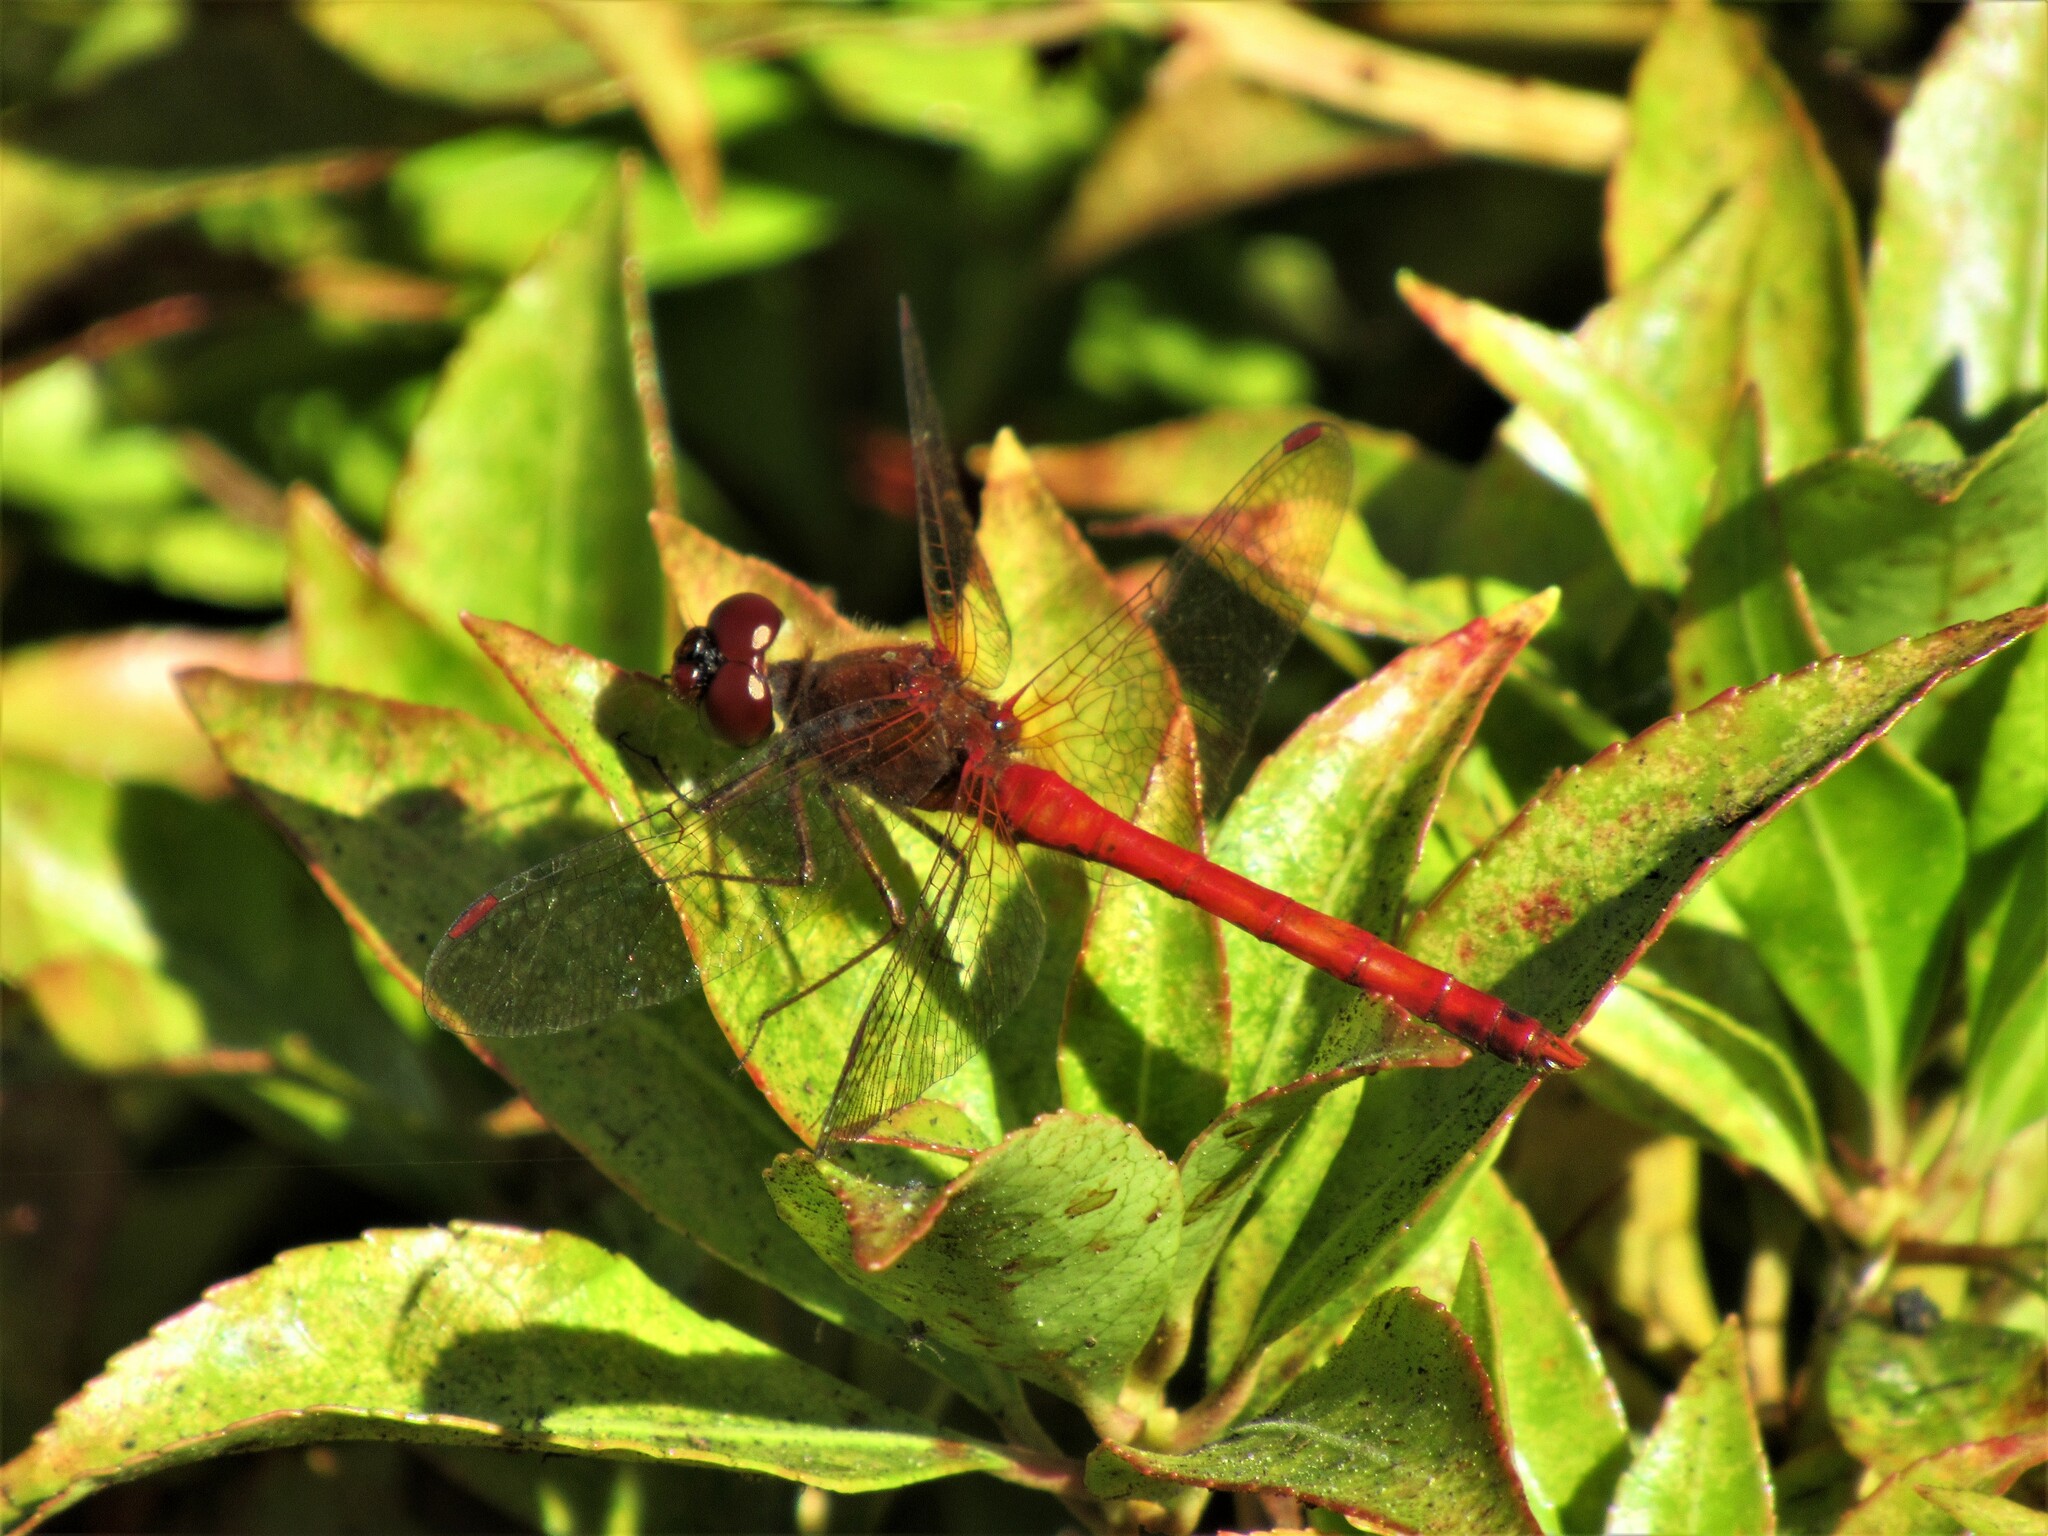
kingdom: Animalia
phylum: Arthropoda
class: Insecta
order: Odonata
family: Libellulidae
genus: Sympetrum
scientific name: Sympetrum vicinum
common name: Autumn meadowhawk
